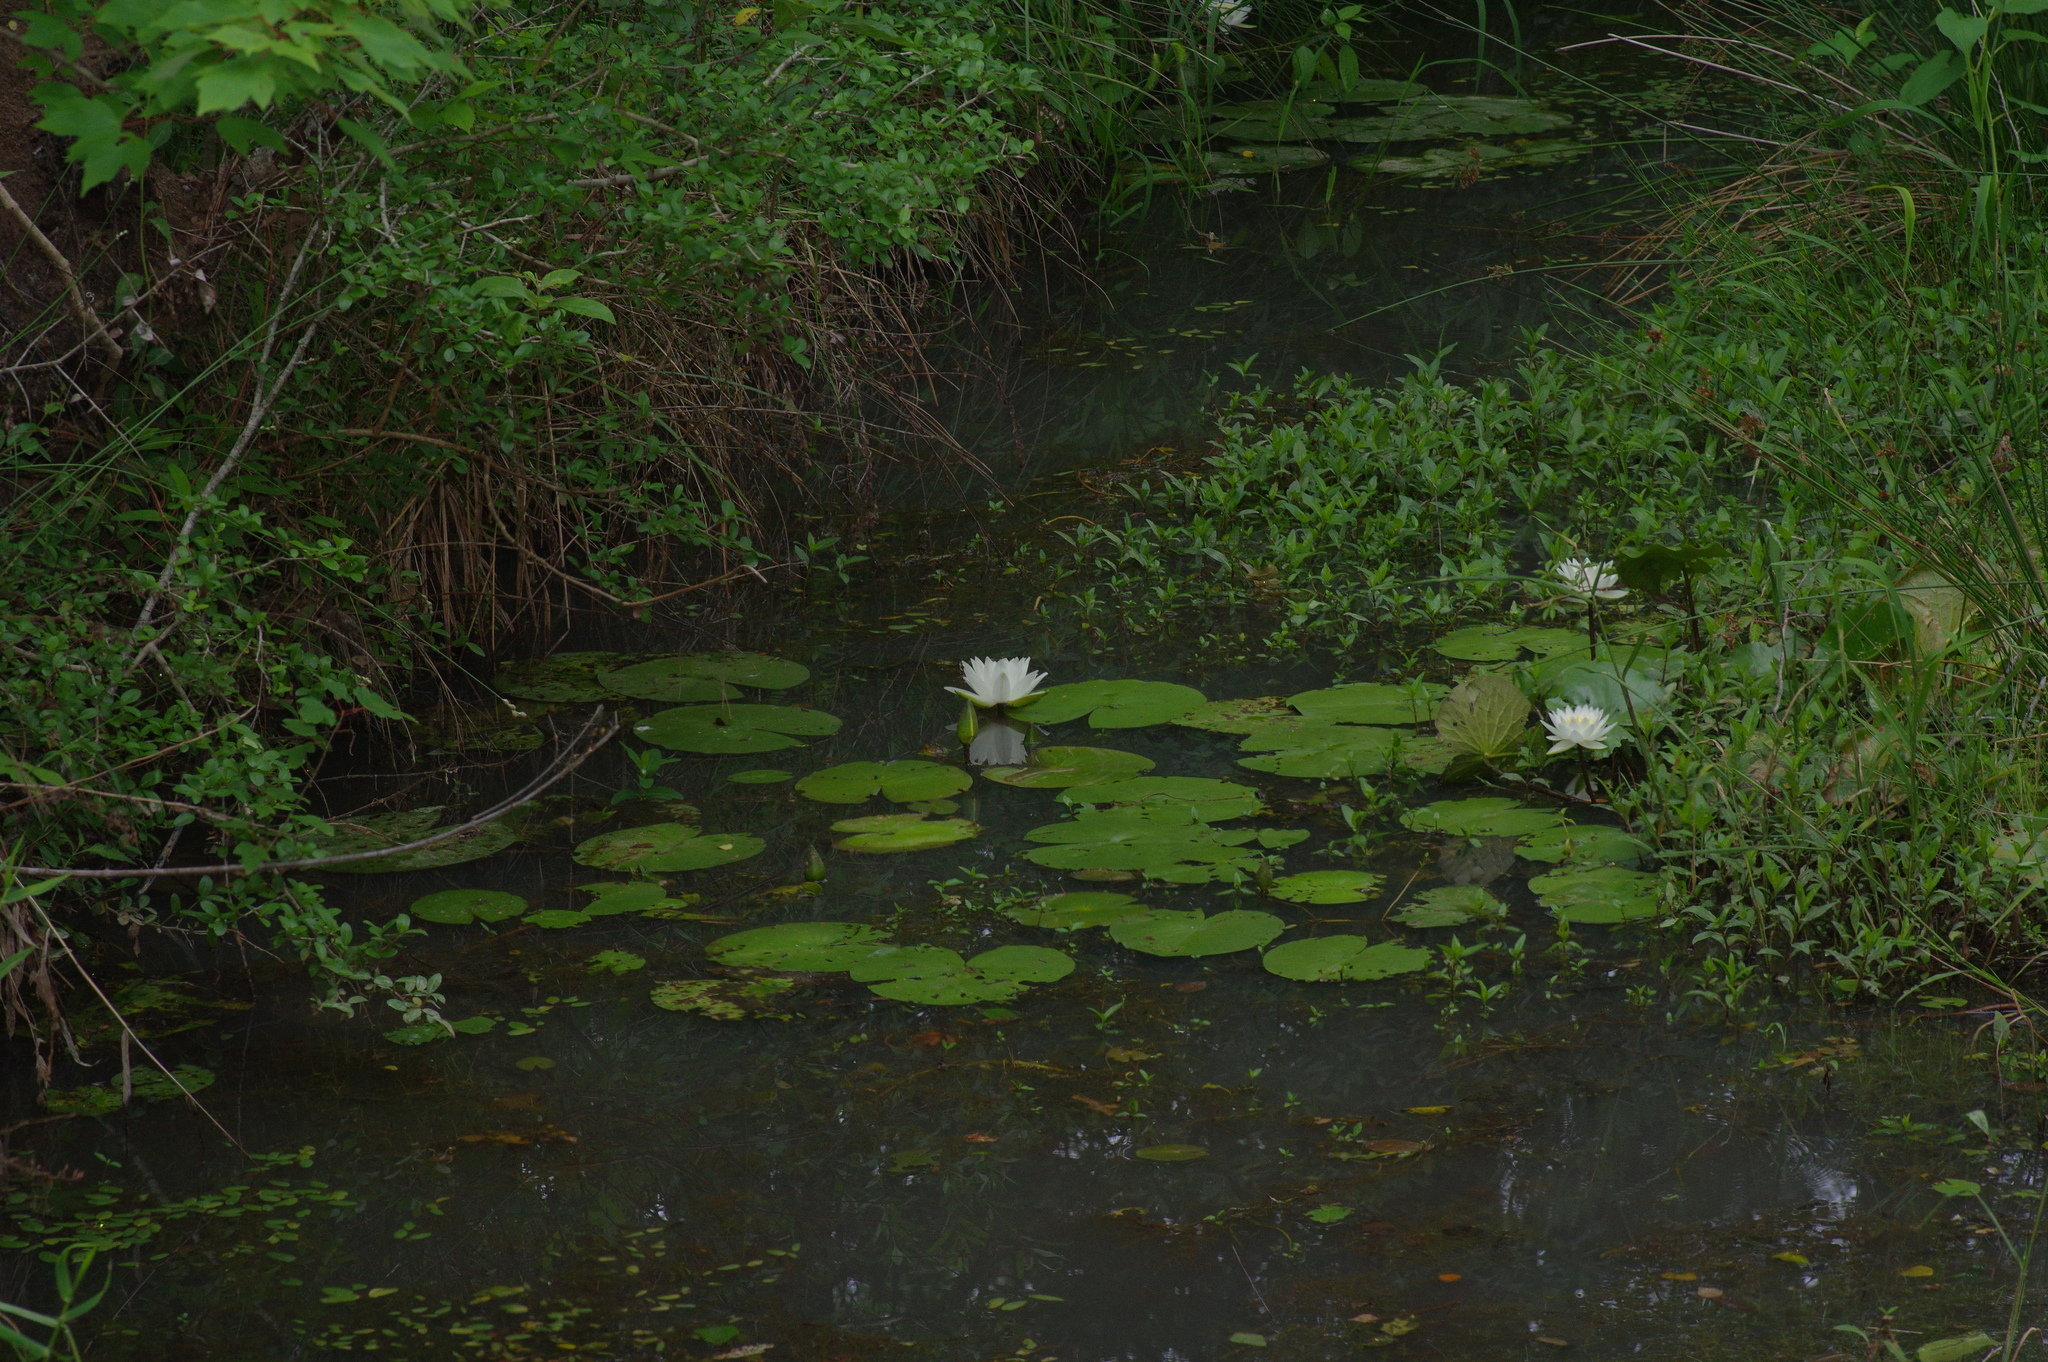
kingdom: Plantae
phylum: Tracheophyta
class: Magnoliopsida
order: Nymphaeales
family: Nymphaeaceae
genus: Nymphaea
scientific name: Nymphaea odorata
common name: Fragrant water-lily
